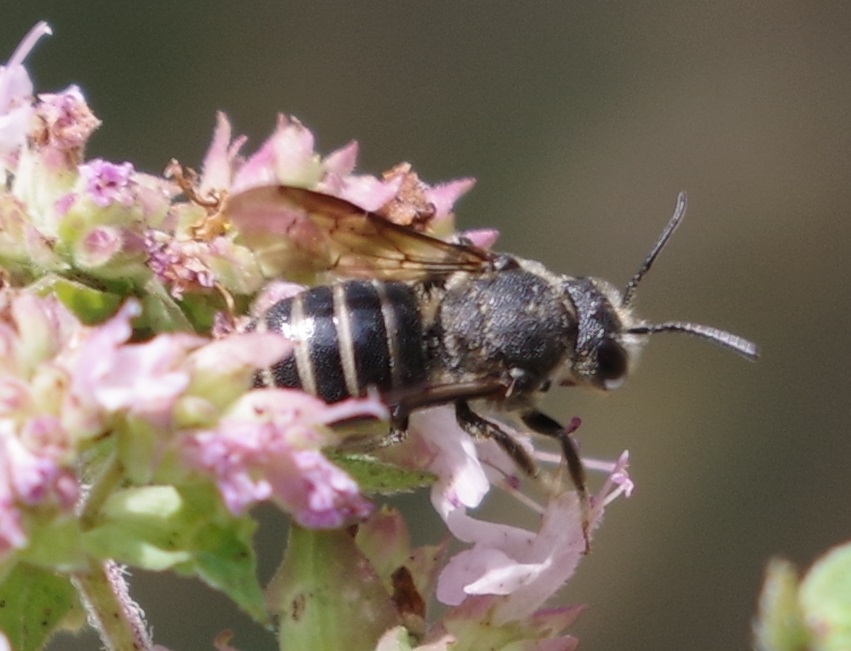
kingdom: Animalia
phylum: Arthropoda
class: Insecta
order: Hymenoptera
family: Megachilidae
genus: Stelis
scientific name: Stelis punctulatissima
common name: Banded dark bee
